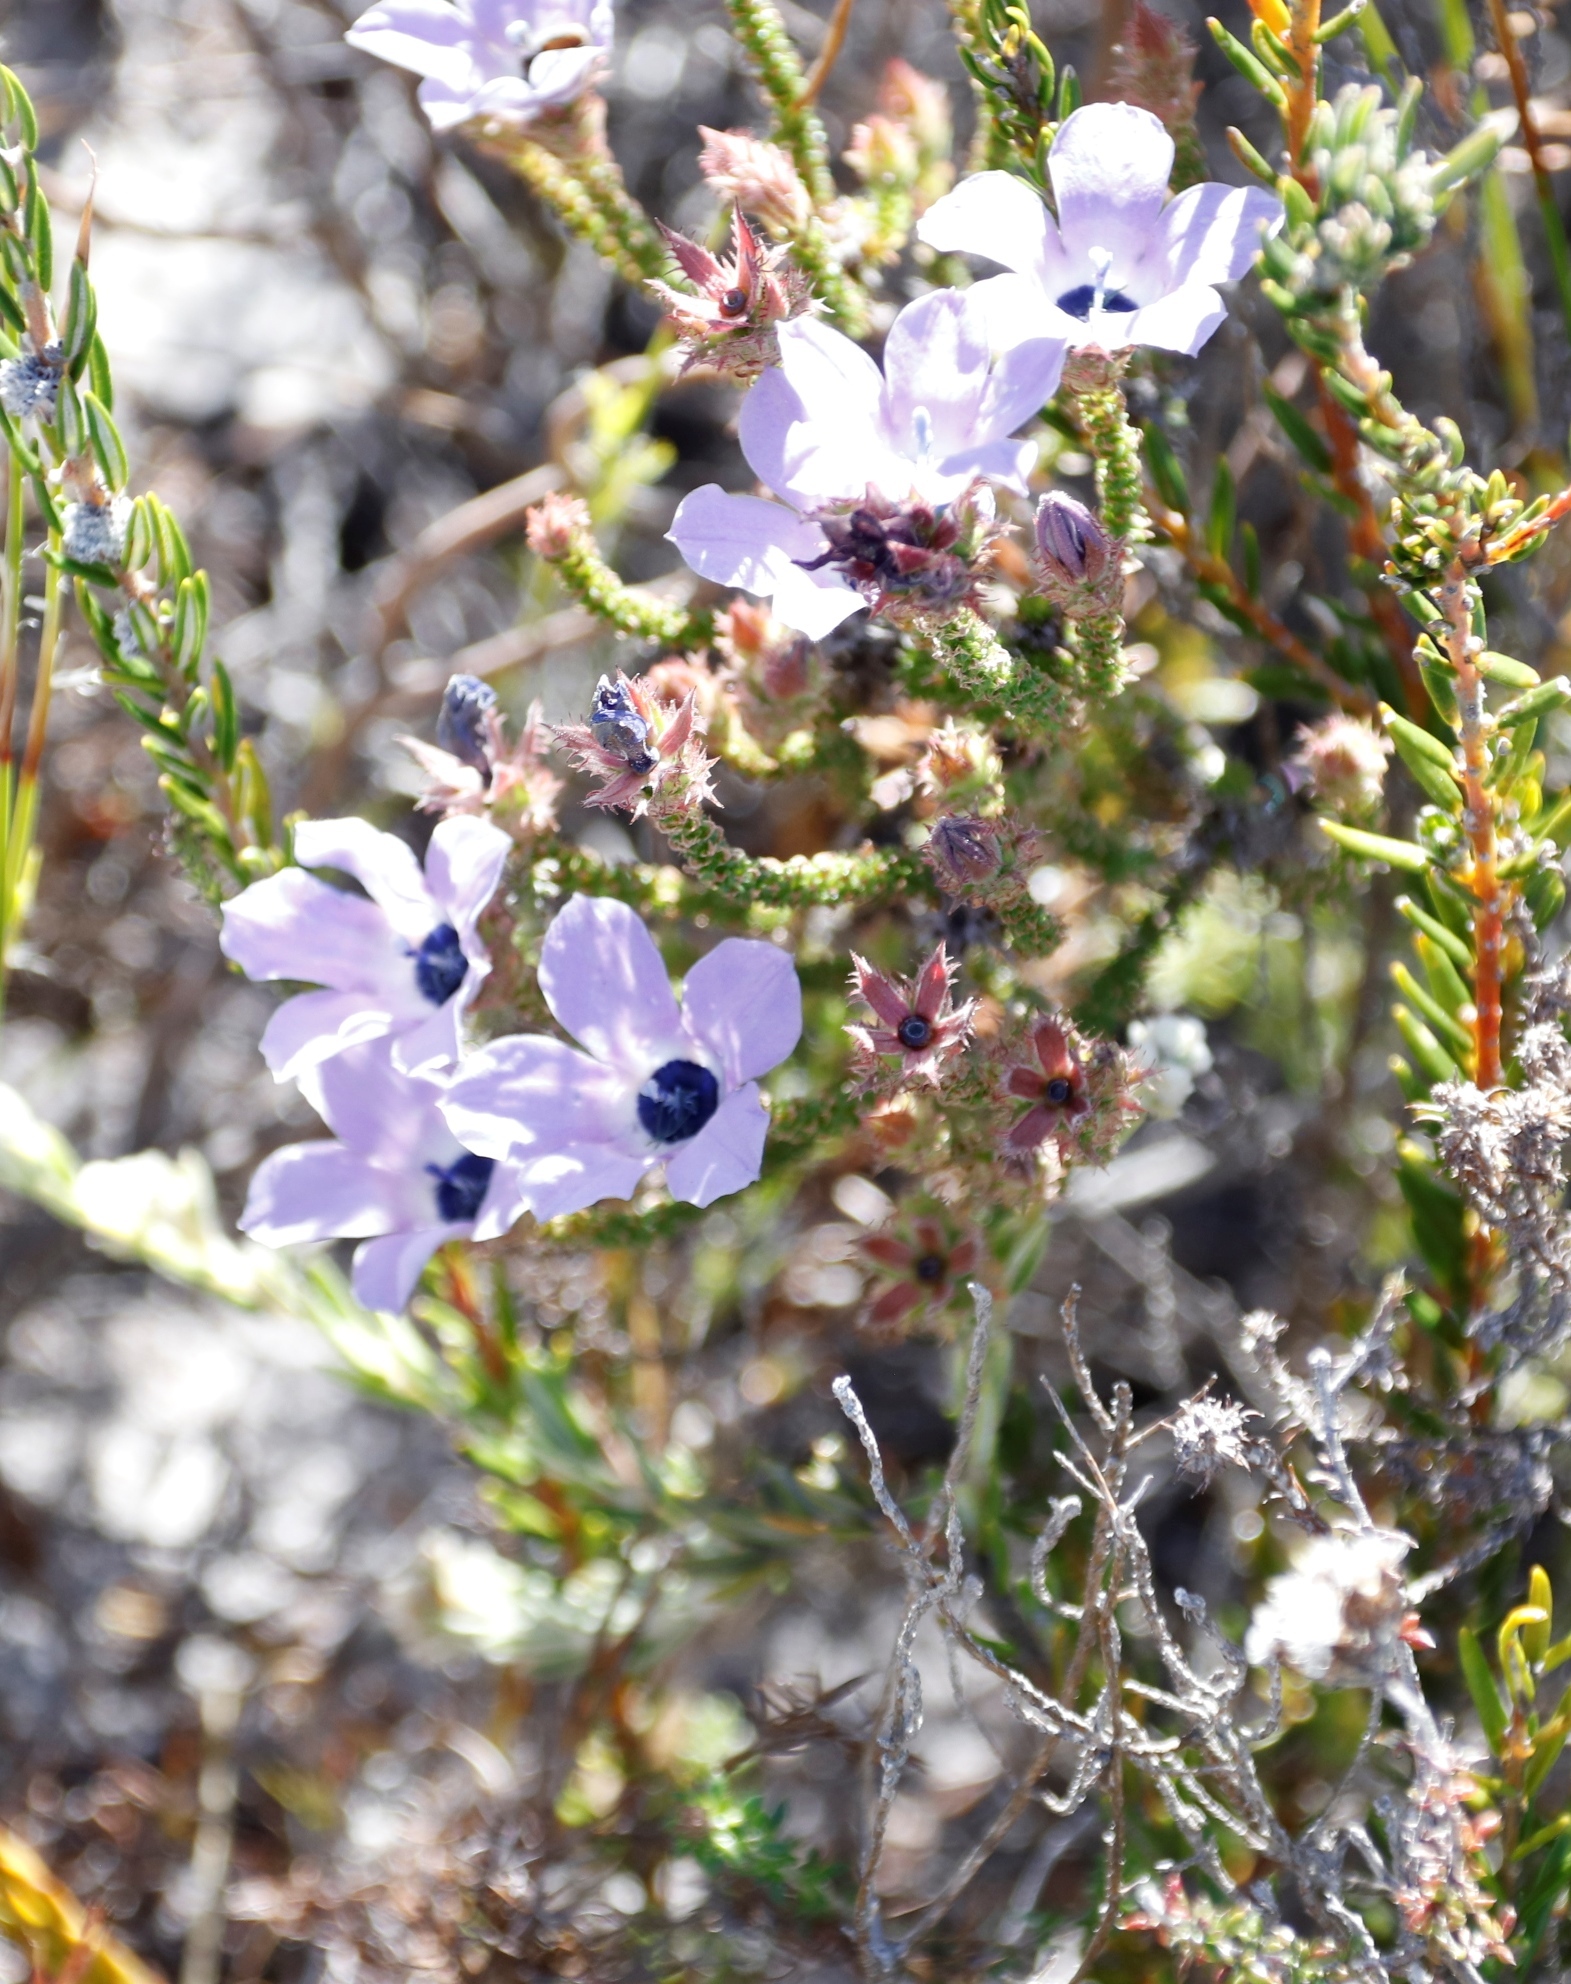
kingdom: Plantae
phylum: Tracheophyta
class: Magnoliopsida
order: Asterales
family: Campanulaceae
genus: Roella
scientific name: Roella triflora
